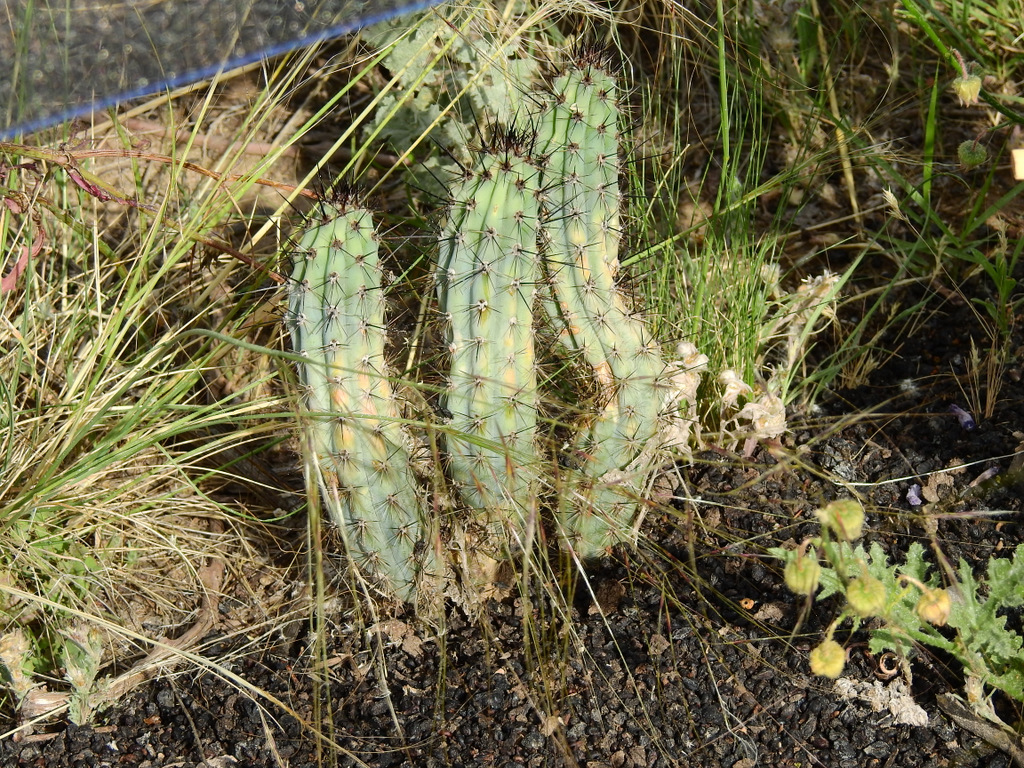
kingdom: Plantae
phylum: Tracheophyta
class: Magnoliopsida
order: Caryophyllales
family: Cactaceae
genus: Cereus
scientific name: Cereus aethiops
